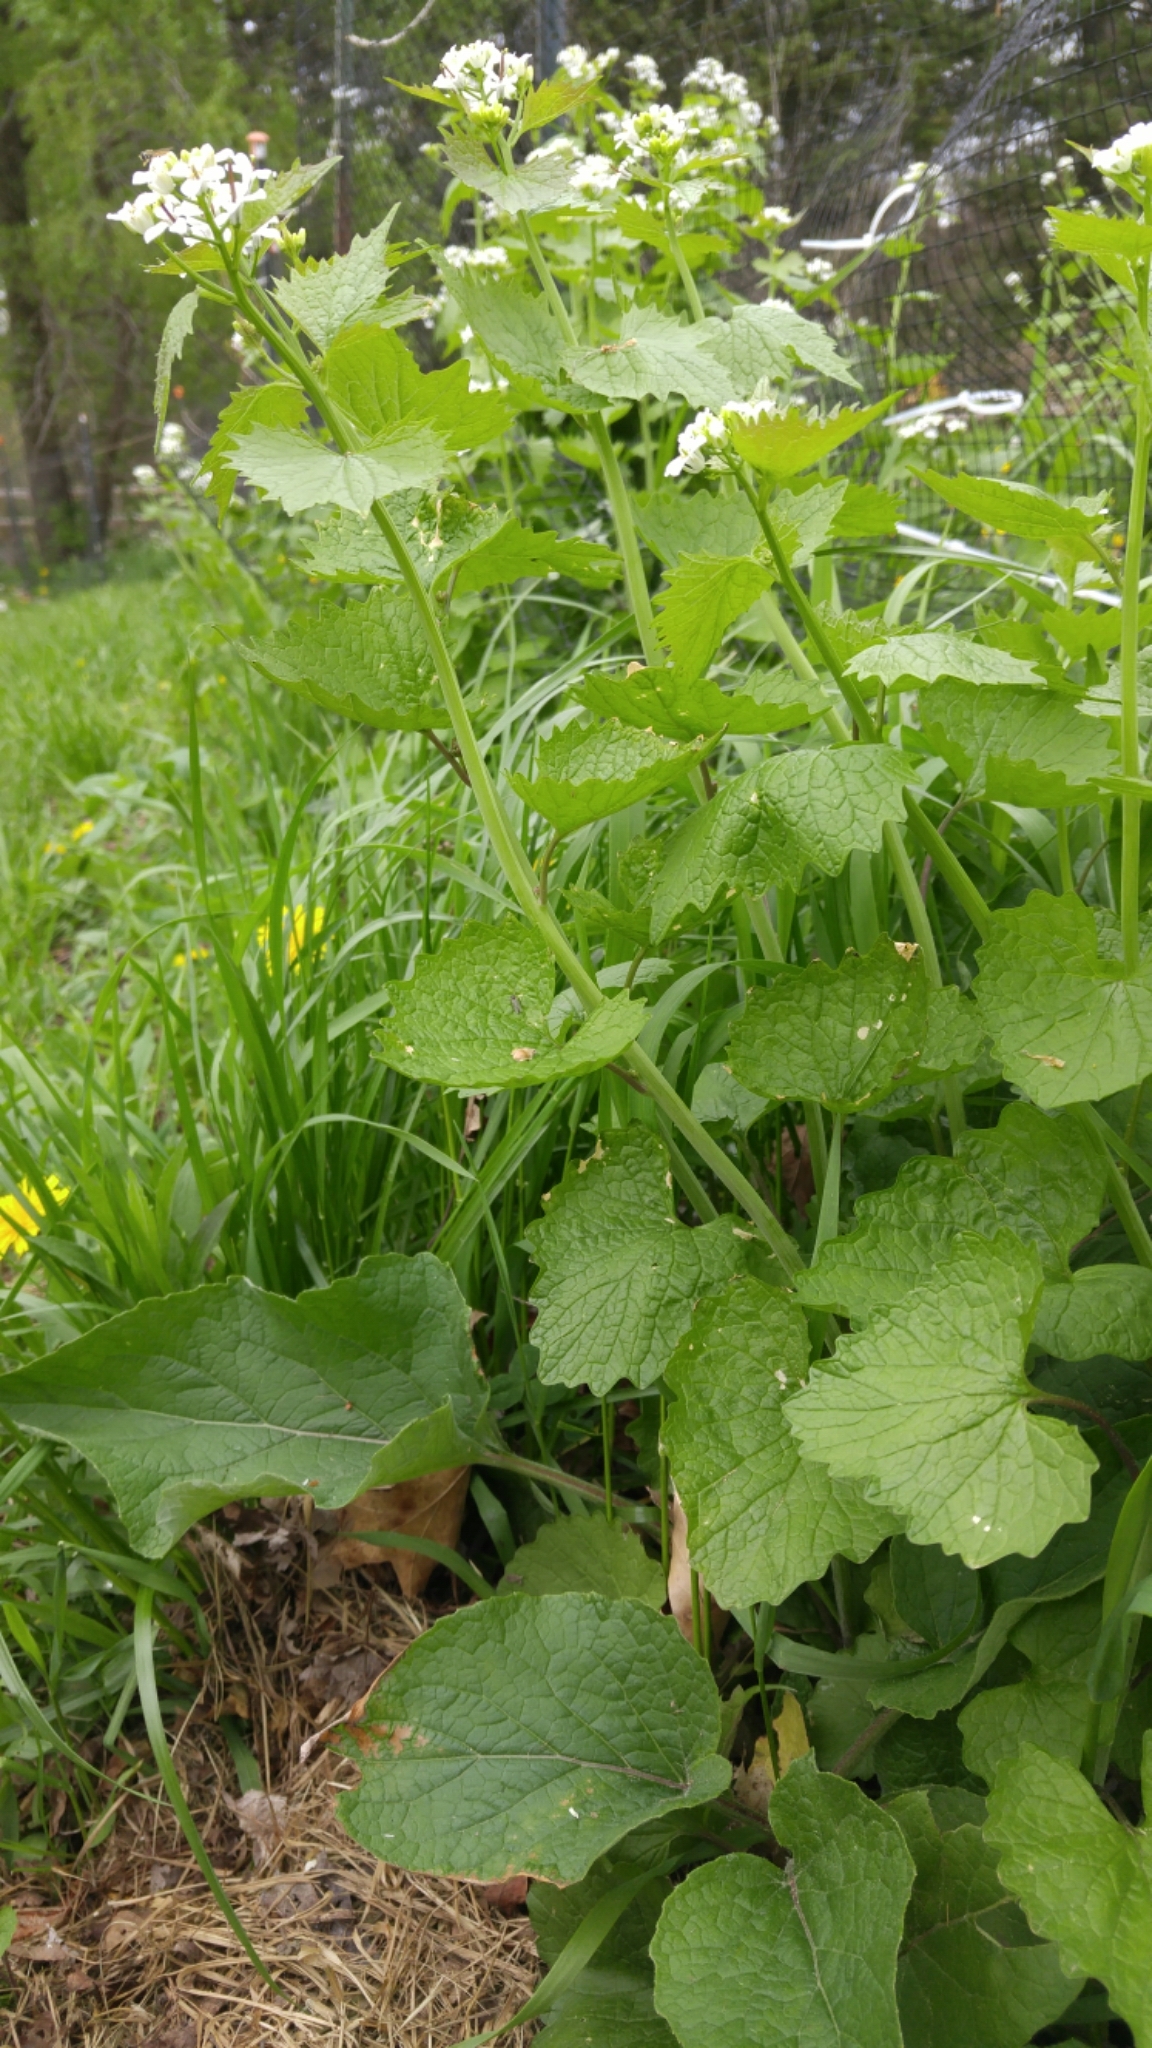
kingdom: Plantae
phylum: Tracheophyta
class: Magnoliopsida
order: Brassicales
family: Brassicaceae
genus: Alliaria
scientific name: Alliaria petiolata
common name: Garlic mustard
